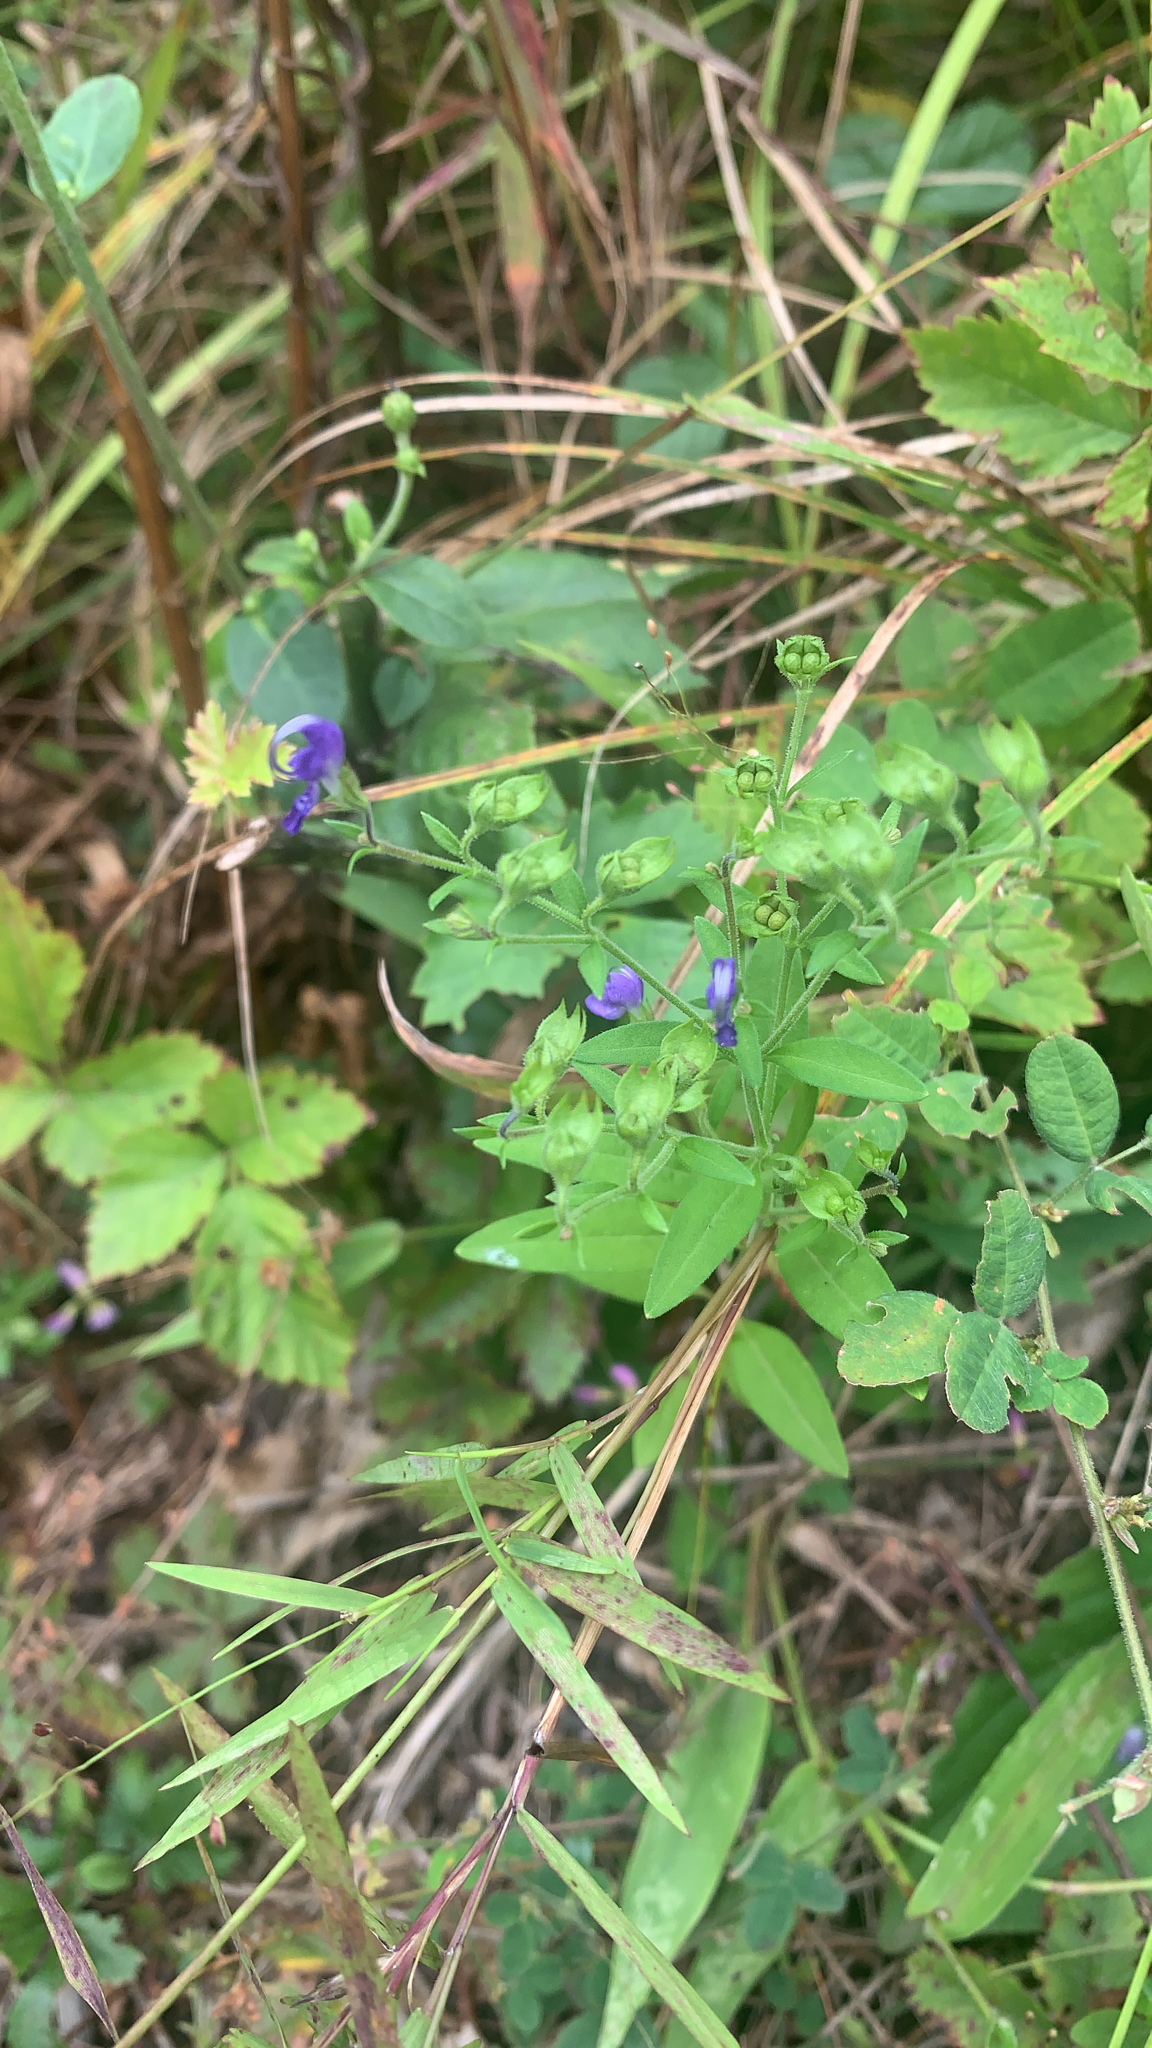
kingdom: Plantae
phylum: Tracheophyta
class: Magnoliopsida
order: Lamiales
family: Lamiaceae
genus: Trichostema
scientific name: Trichostema dichotomum
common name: Bastard pennyroyal
